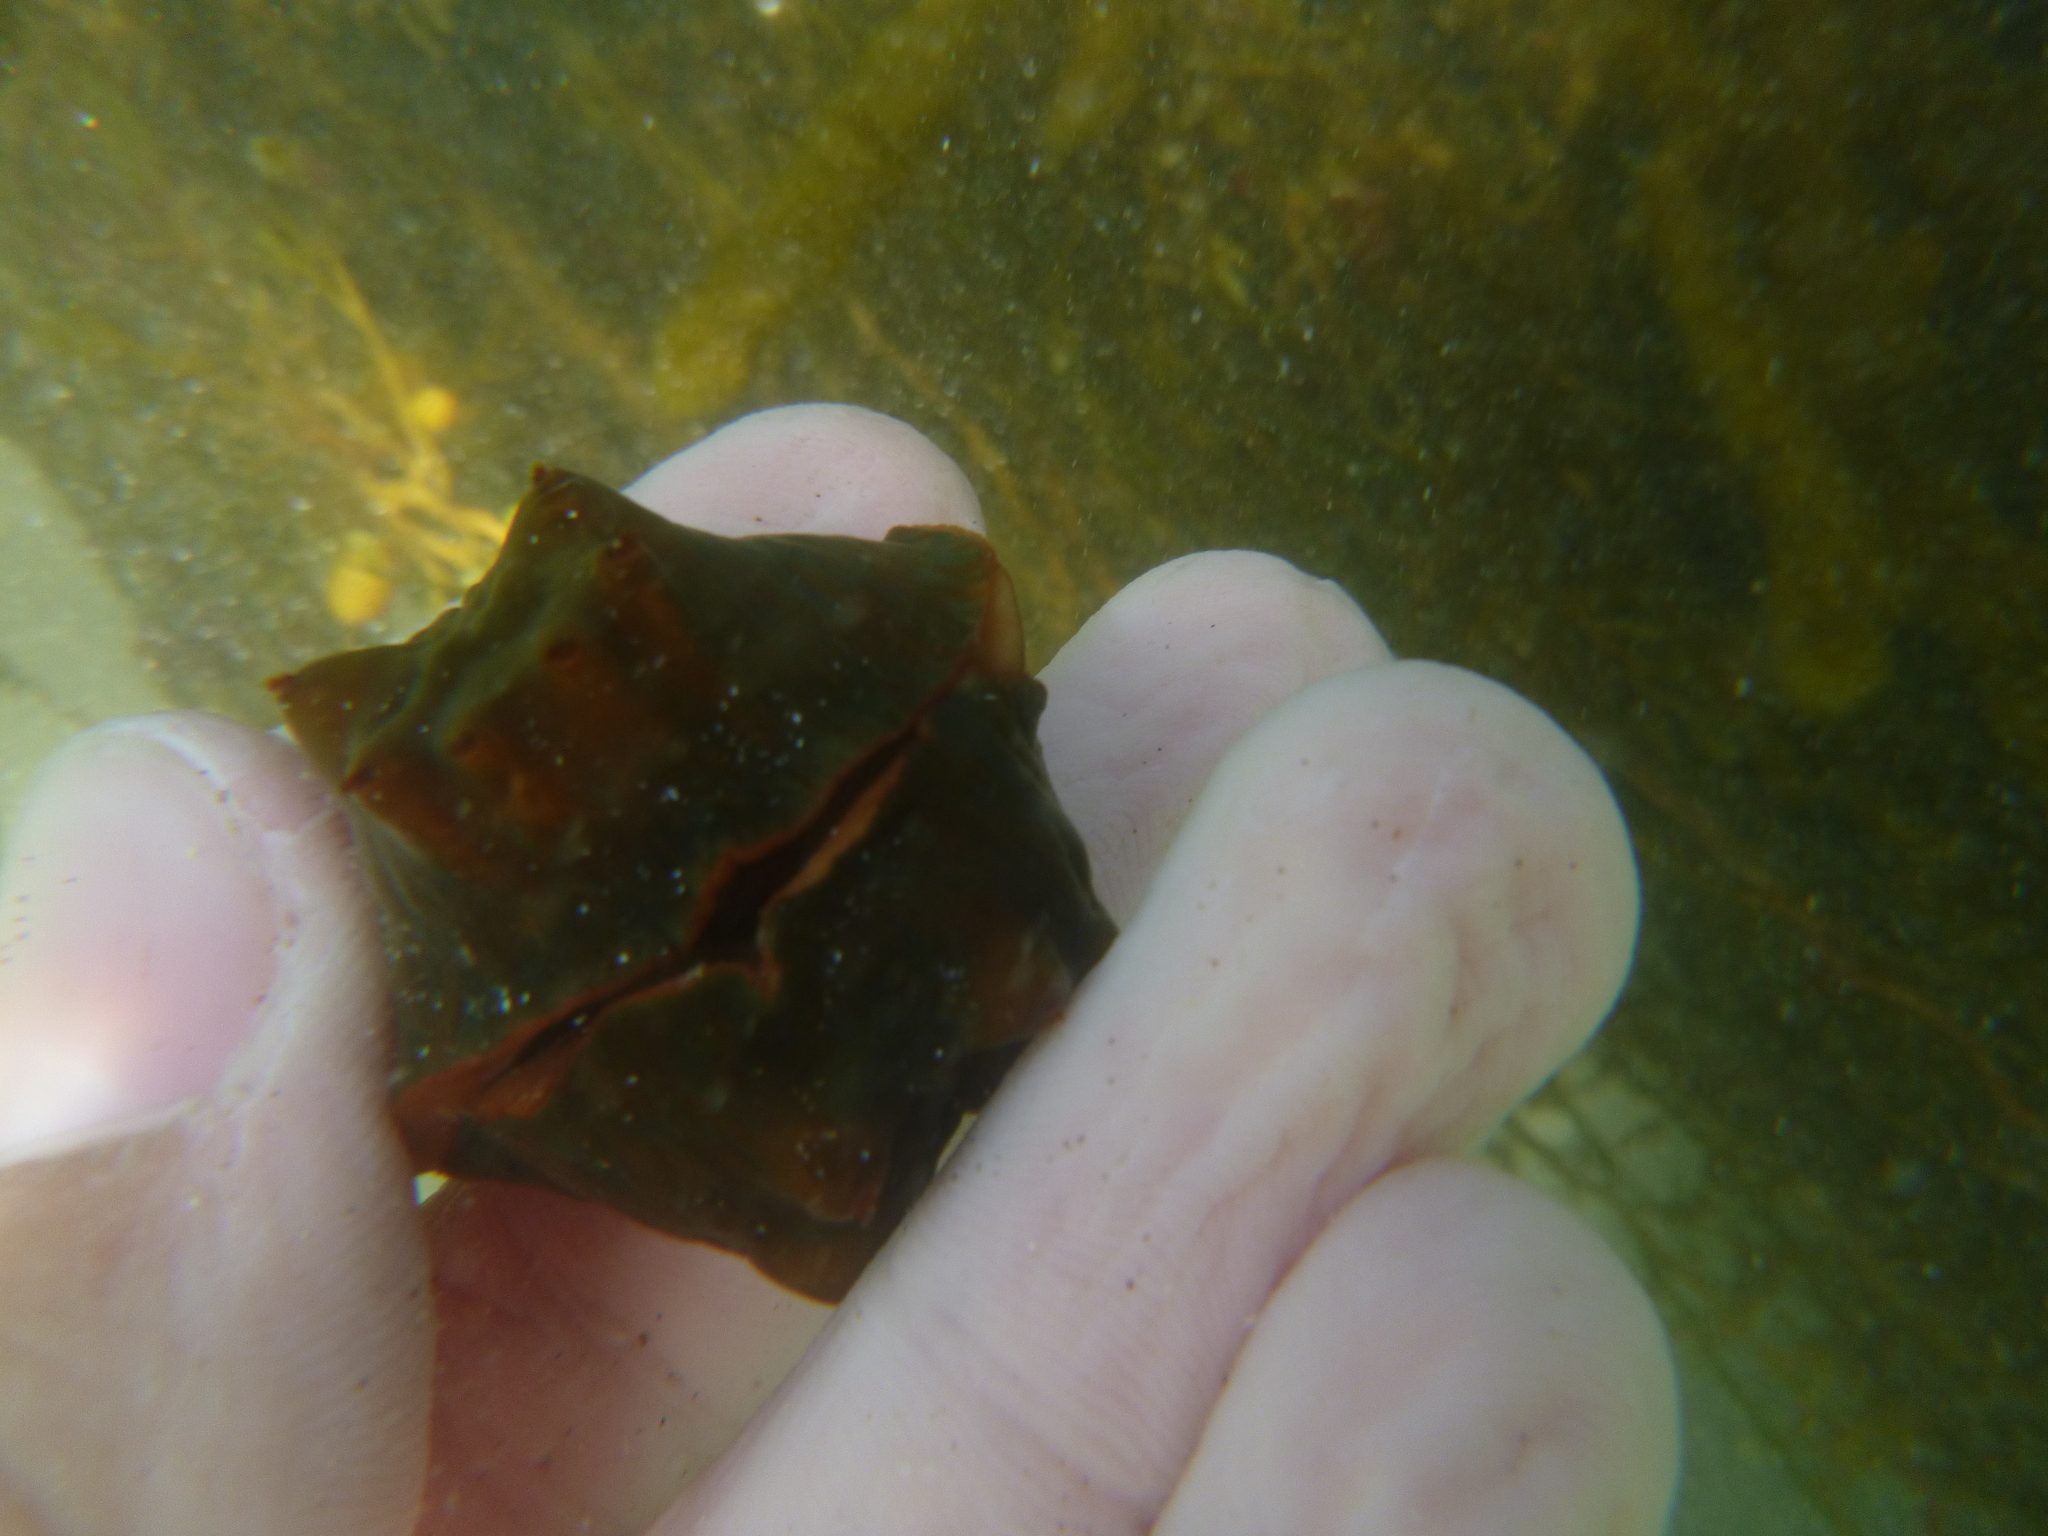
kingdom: Animalia
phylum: Mollusca
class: Polyplacophora
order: Chitonida
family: Acanthochitonidae
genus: Cryptoconchus
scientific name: Cryptoconchus porosus
